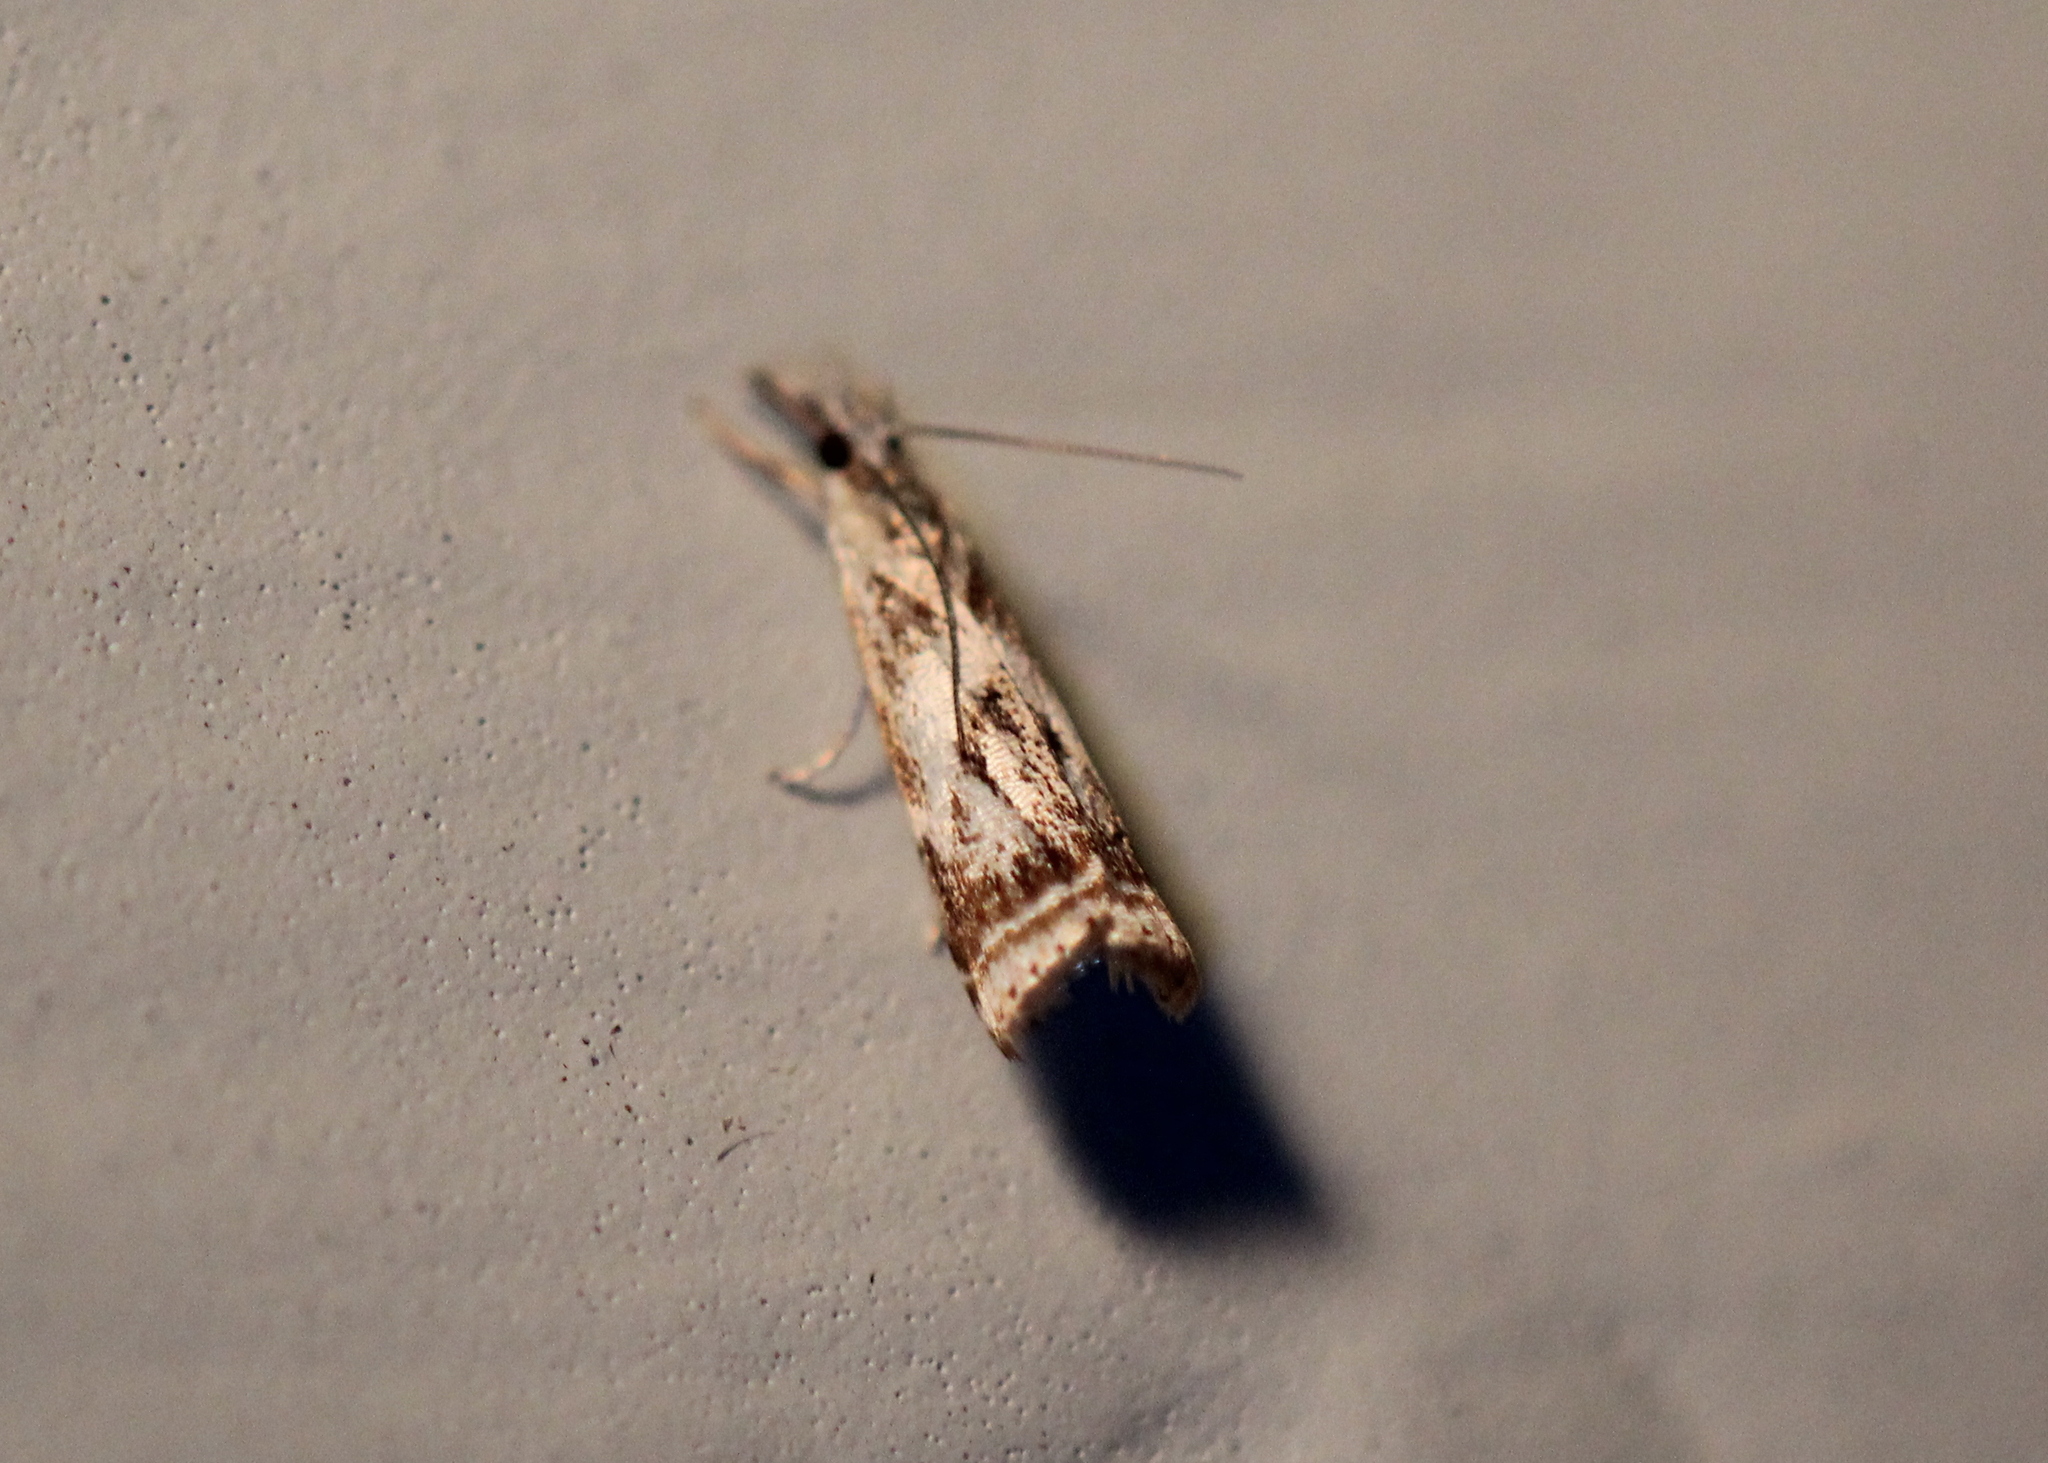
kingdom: Animalia
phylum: Arthropoda
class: Insecta
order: Lepidoptera
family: Crambidae
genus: Microcrambus
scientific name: Microcrambus elegans
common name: Elegant grass-veneer
